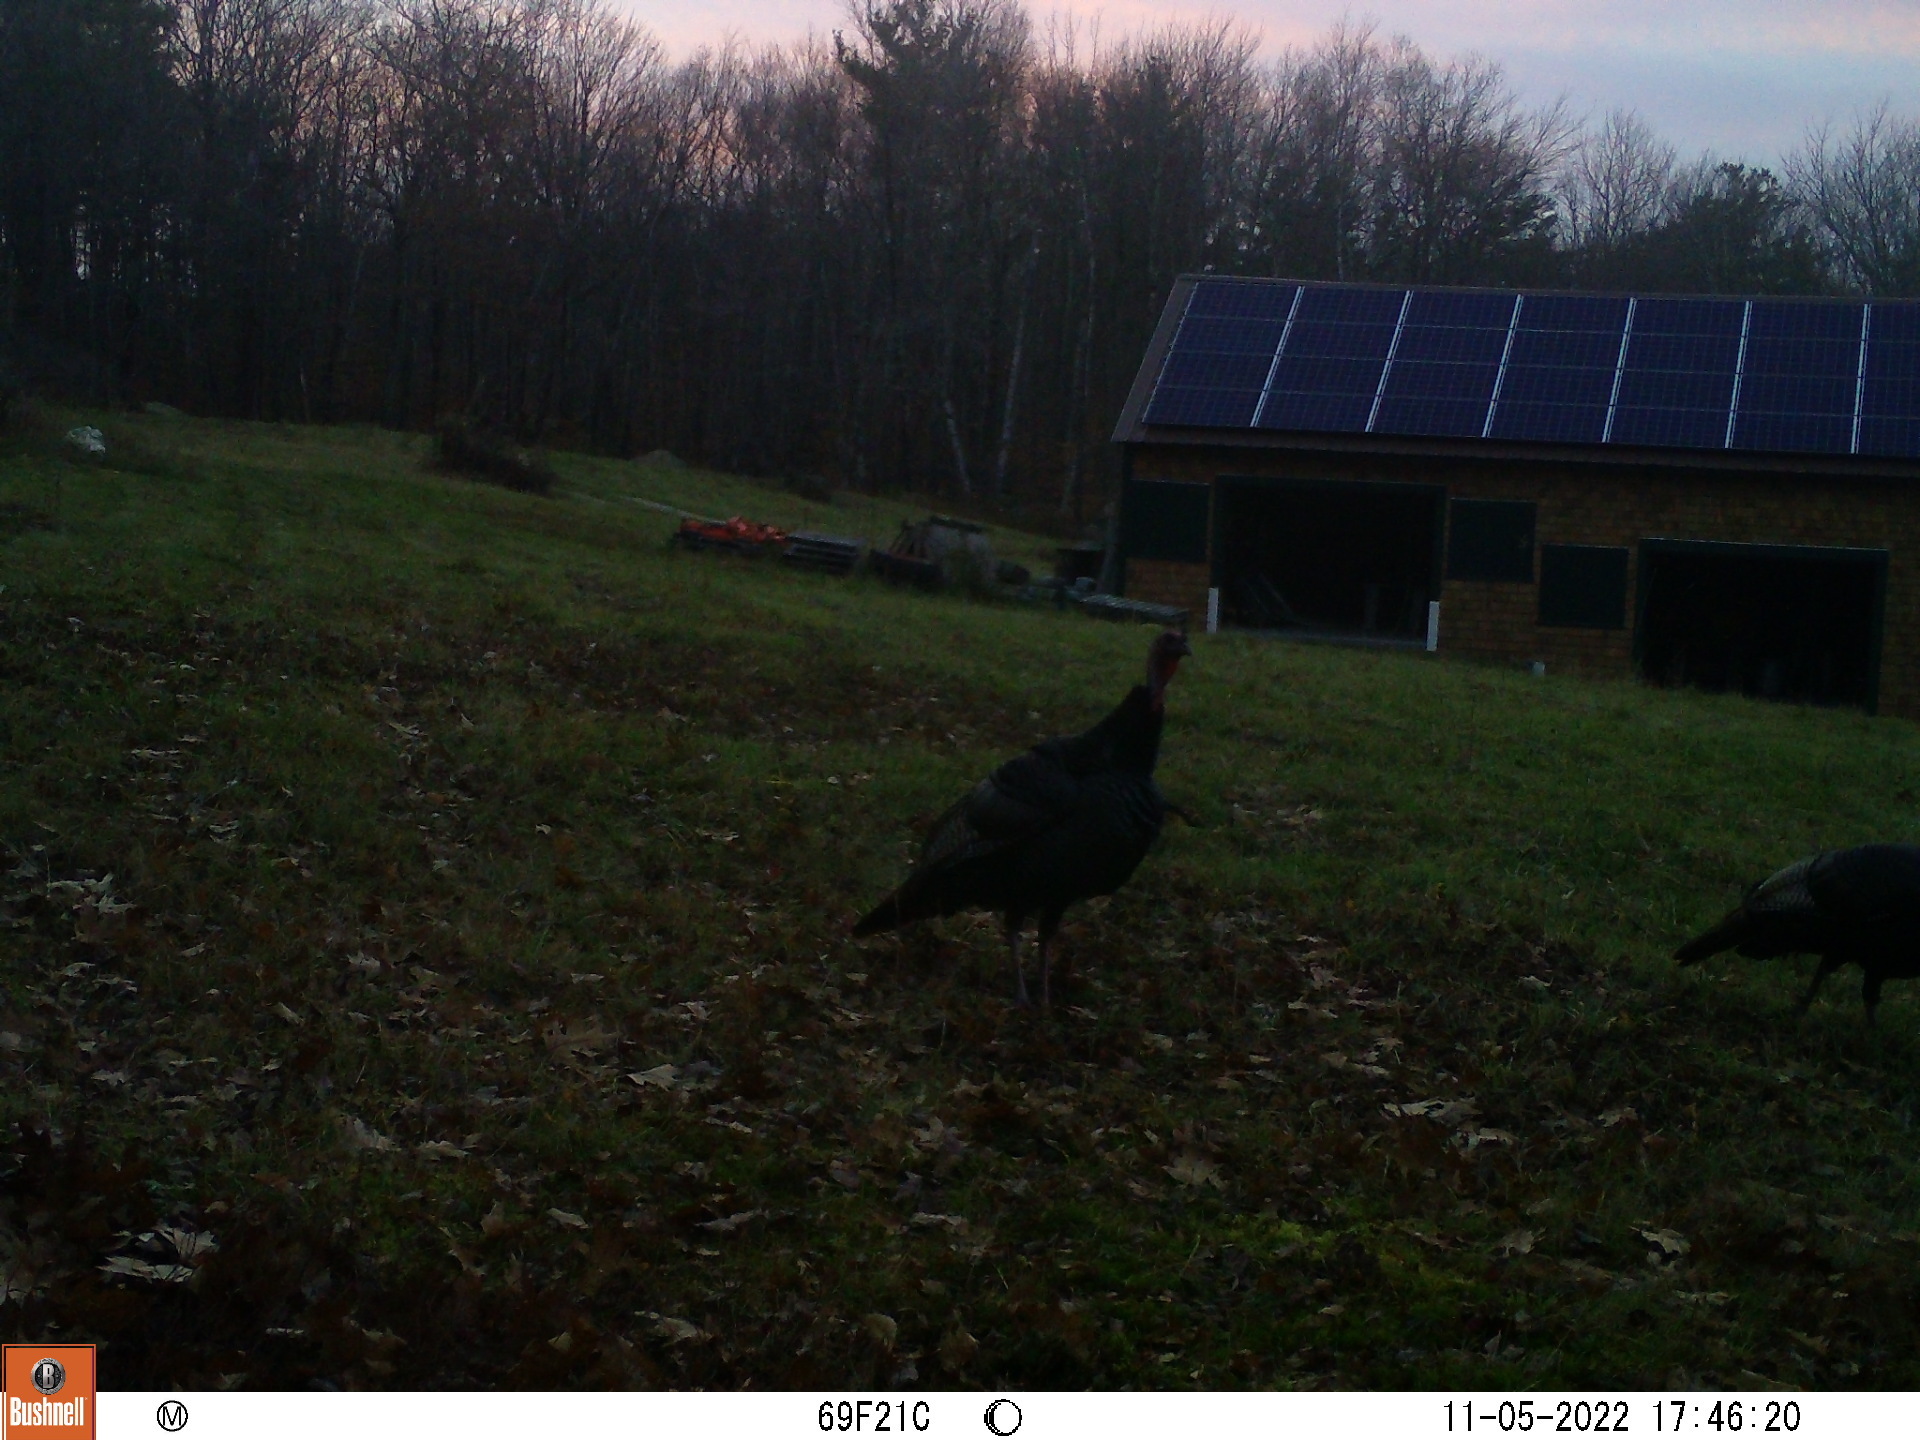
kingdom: Animalia
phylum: Chordata
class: Aves
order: Galliformes
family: Phasianidae
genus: Meleagris
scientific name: Meleagris gallopavo
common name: Wild turkey
